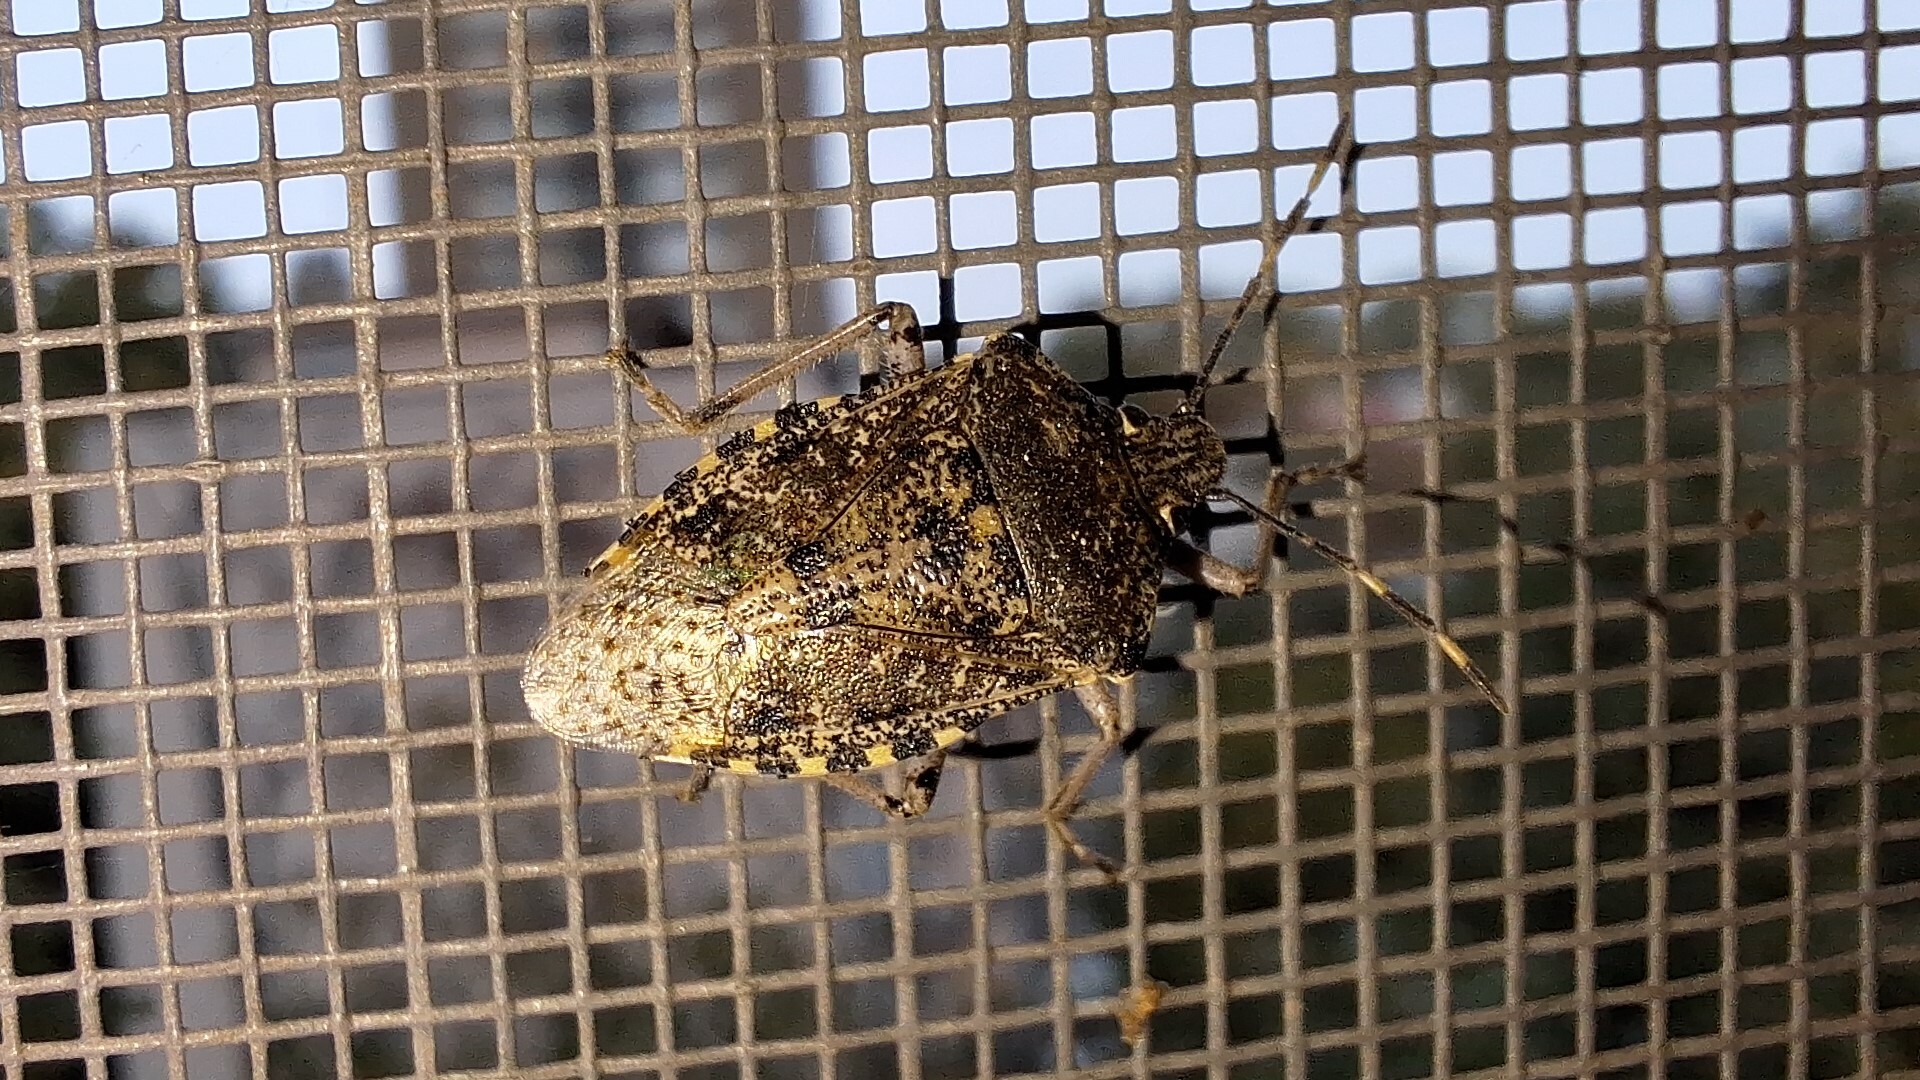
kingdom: Animalia
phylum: Arthropoda
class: Insecta
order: Hemiptera
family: Pentatomidae
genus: Rhaphigaster
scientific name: Rhaphigaster nebulosa
